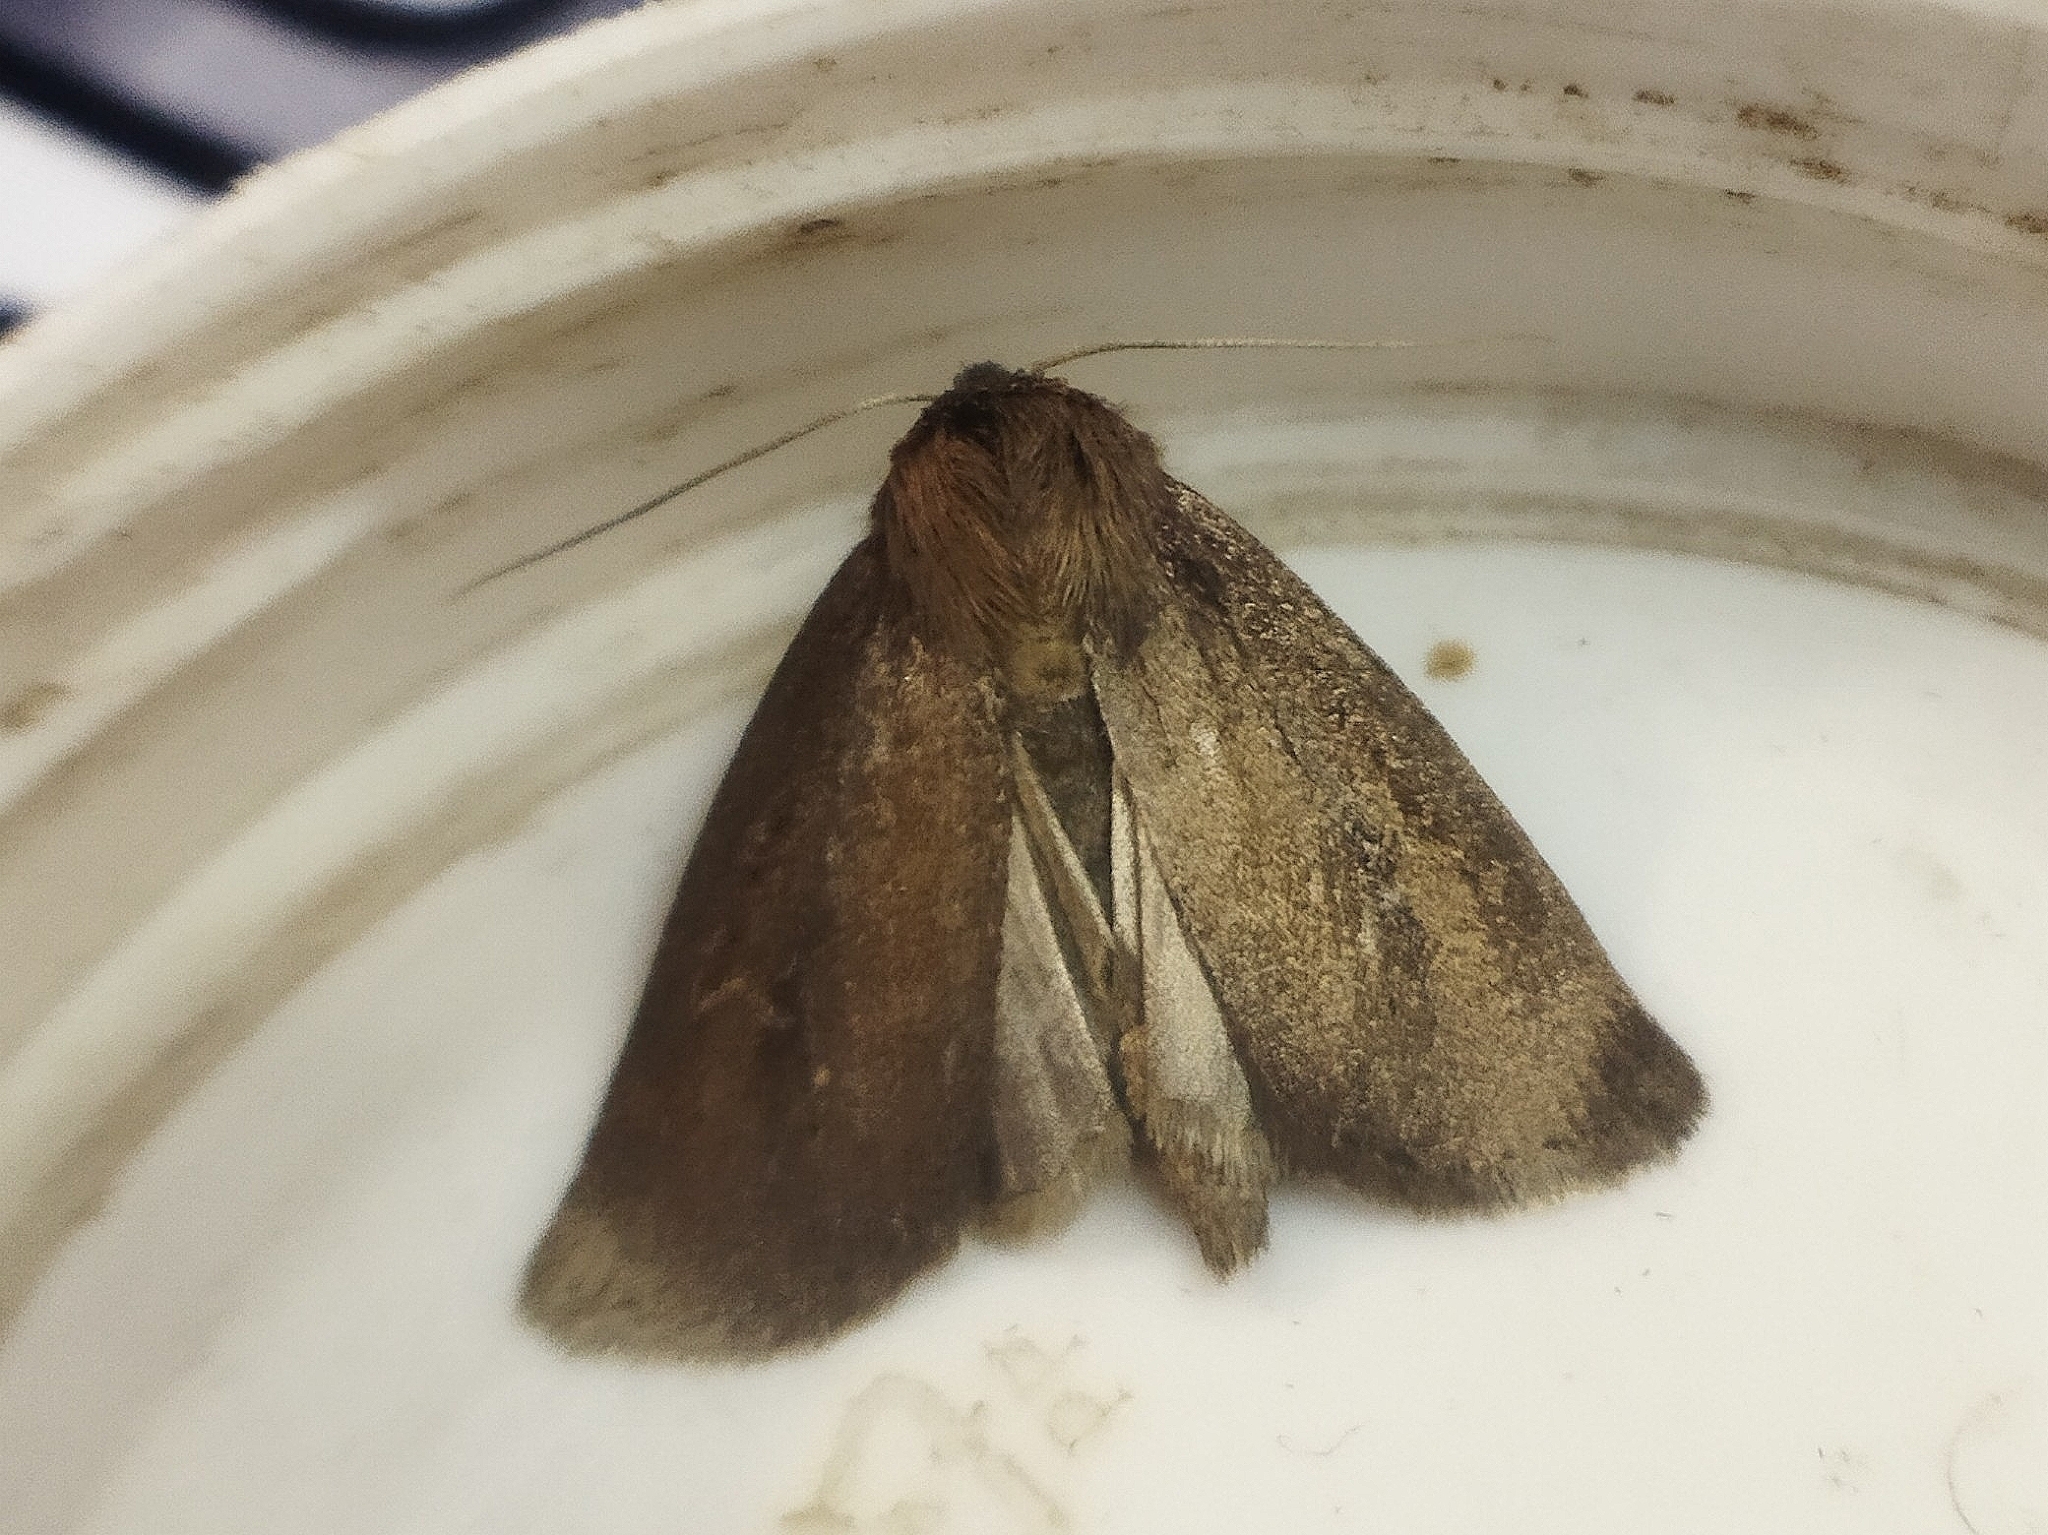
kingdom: Animalia
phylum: Arthropoda
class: Insecta
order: Lepidoptera
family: Noctuidae
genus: Archanara
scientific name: Archanara dissoluta
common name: Brown-veined wainscot
